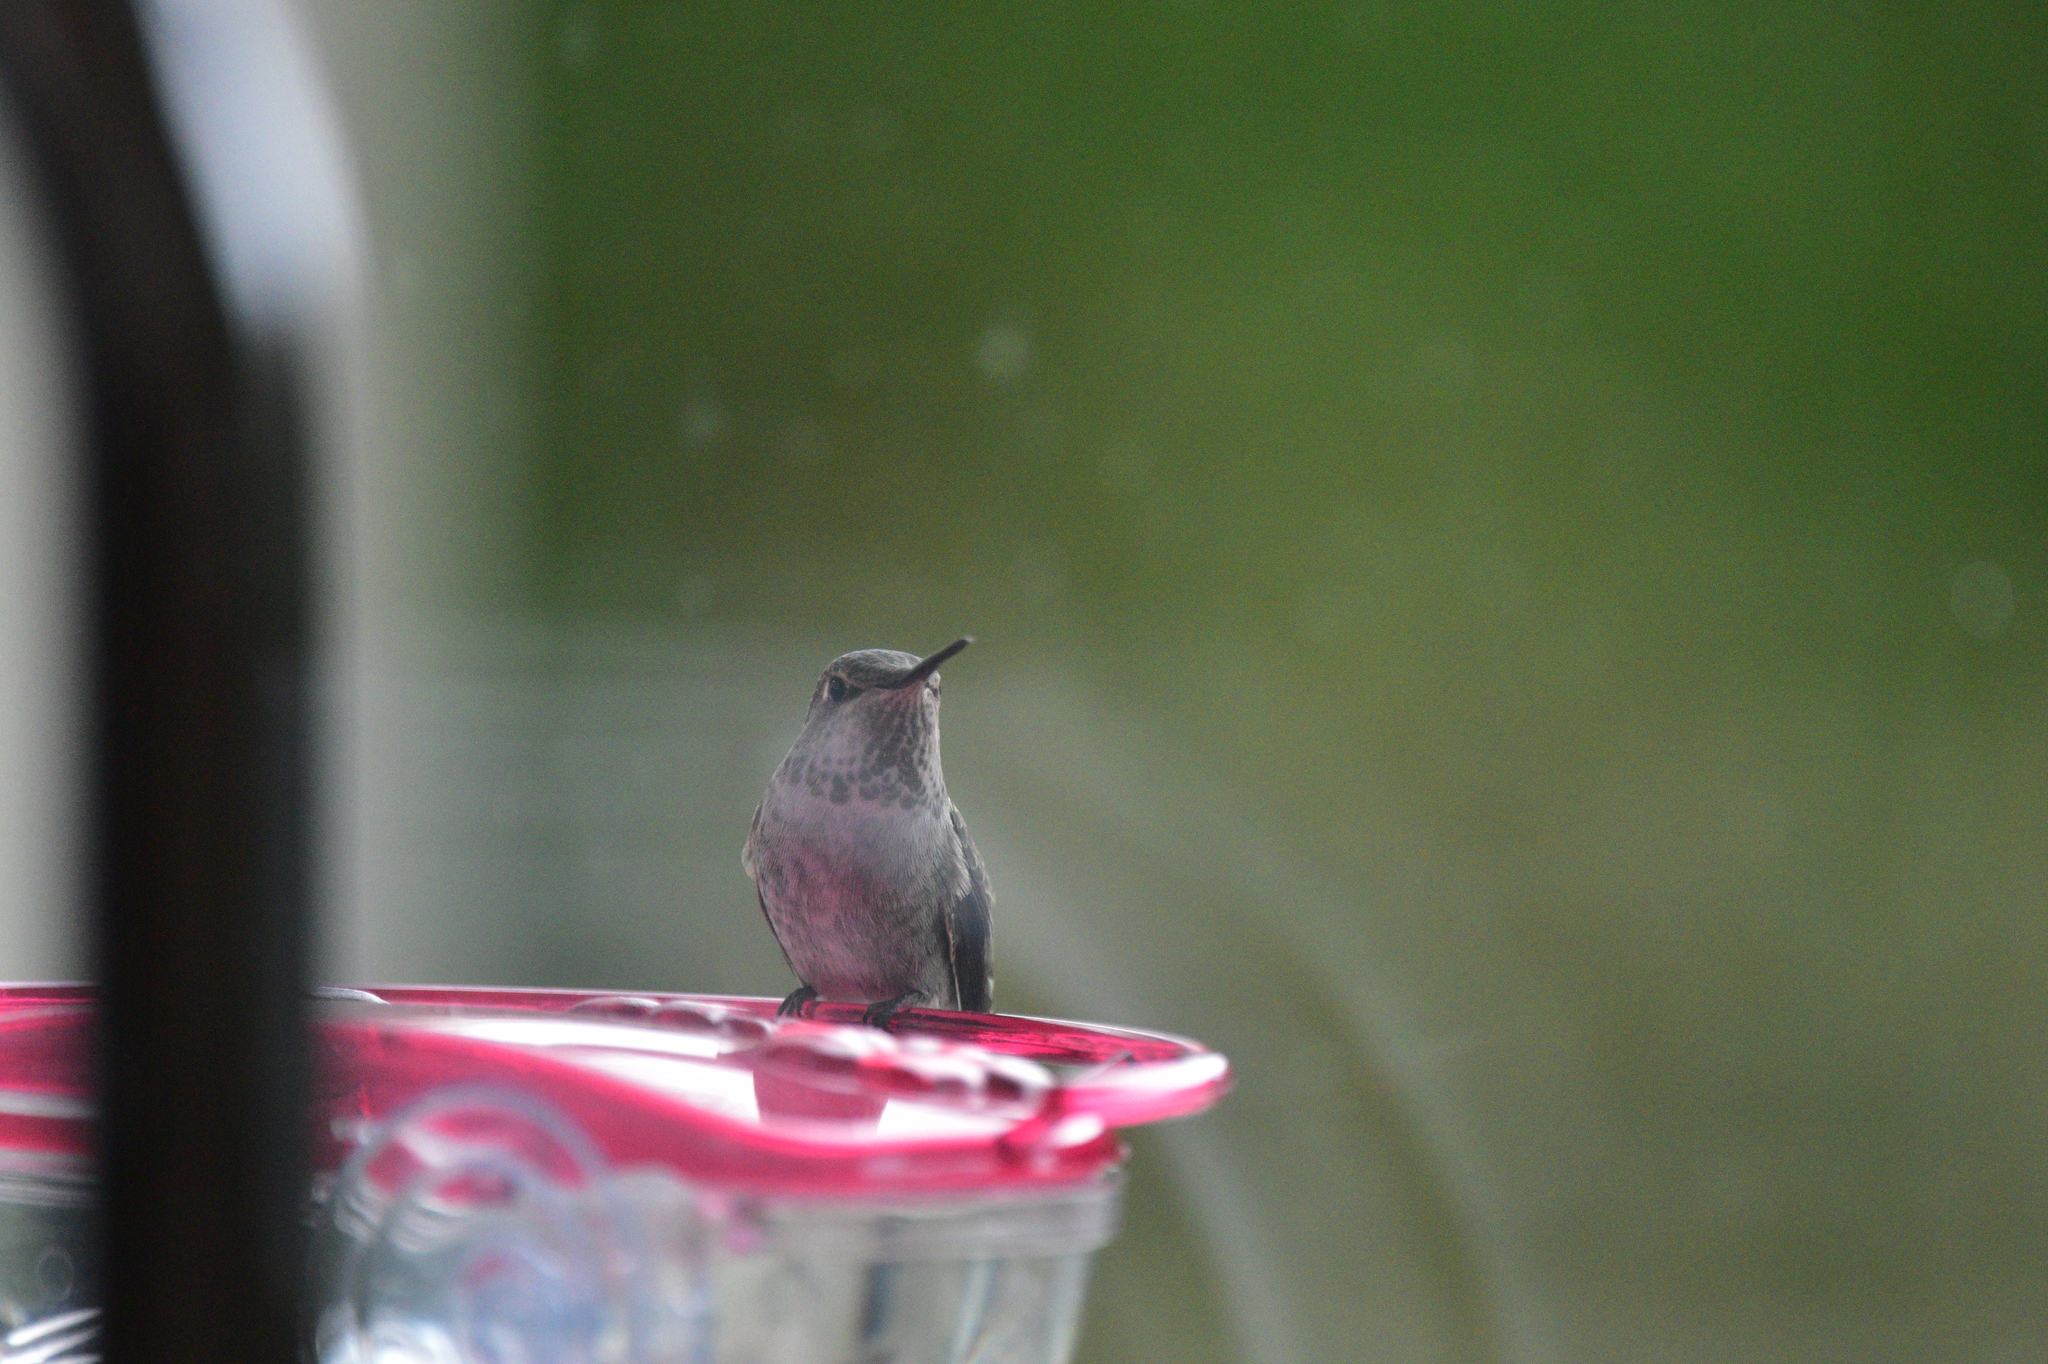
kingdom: Animalia
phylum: Chordata
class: Aves
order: Apodiformes
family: Trochilidae
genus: Calypte
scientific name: Calypte anna
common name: Anna's hummingbird
